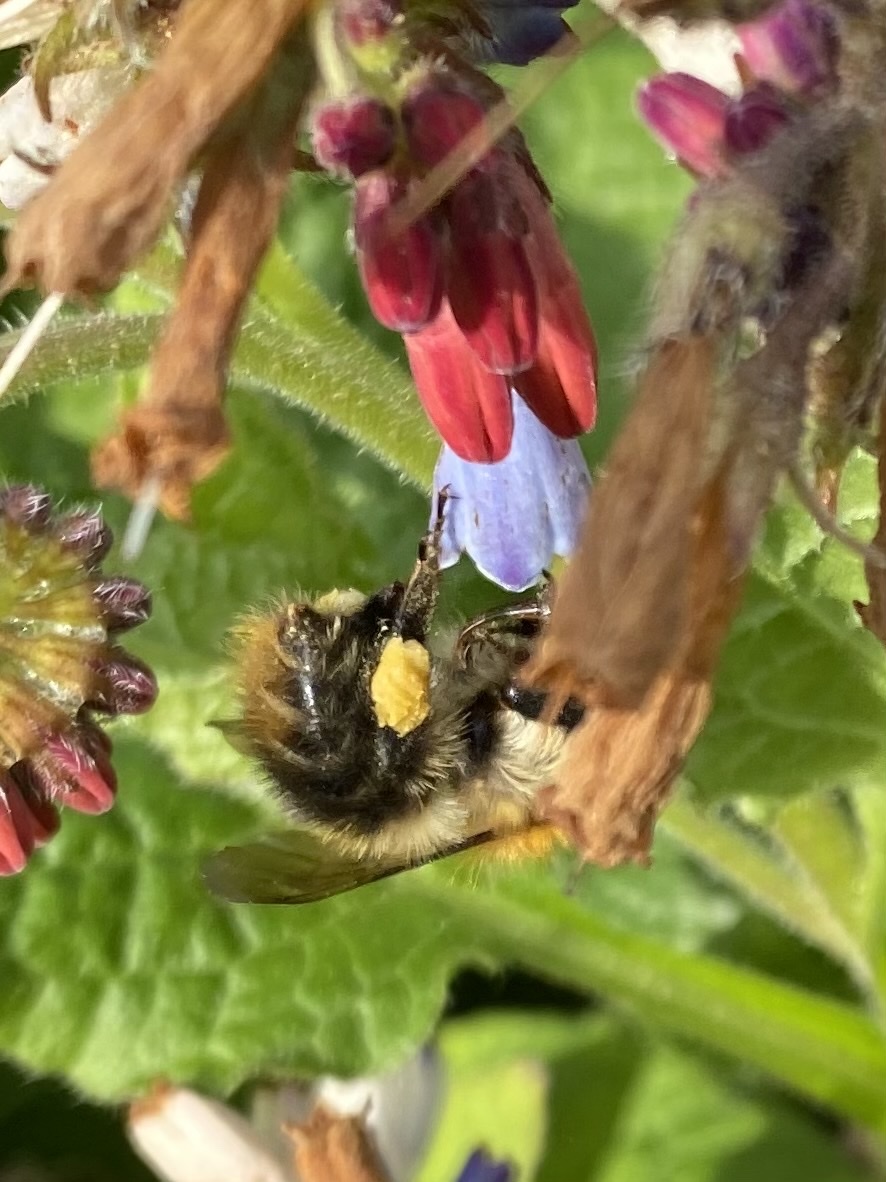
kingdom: Animalia
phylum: Arthropoda
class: Insecta
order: Hymenoptera
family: Apidae
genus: Bombus
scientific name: Bombus pascuorum
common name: Common carder bee
